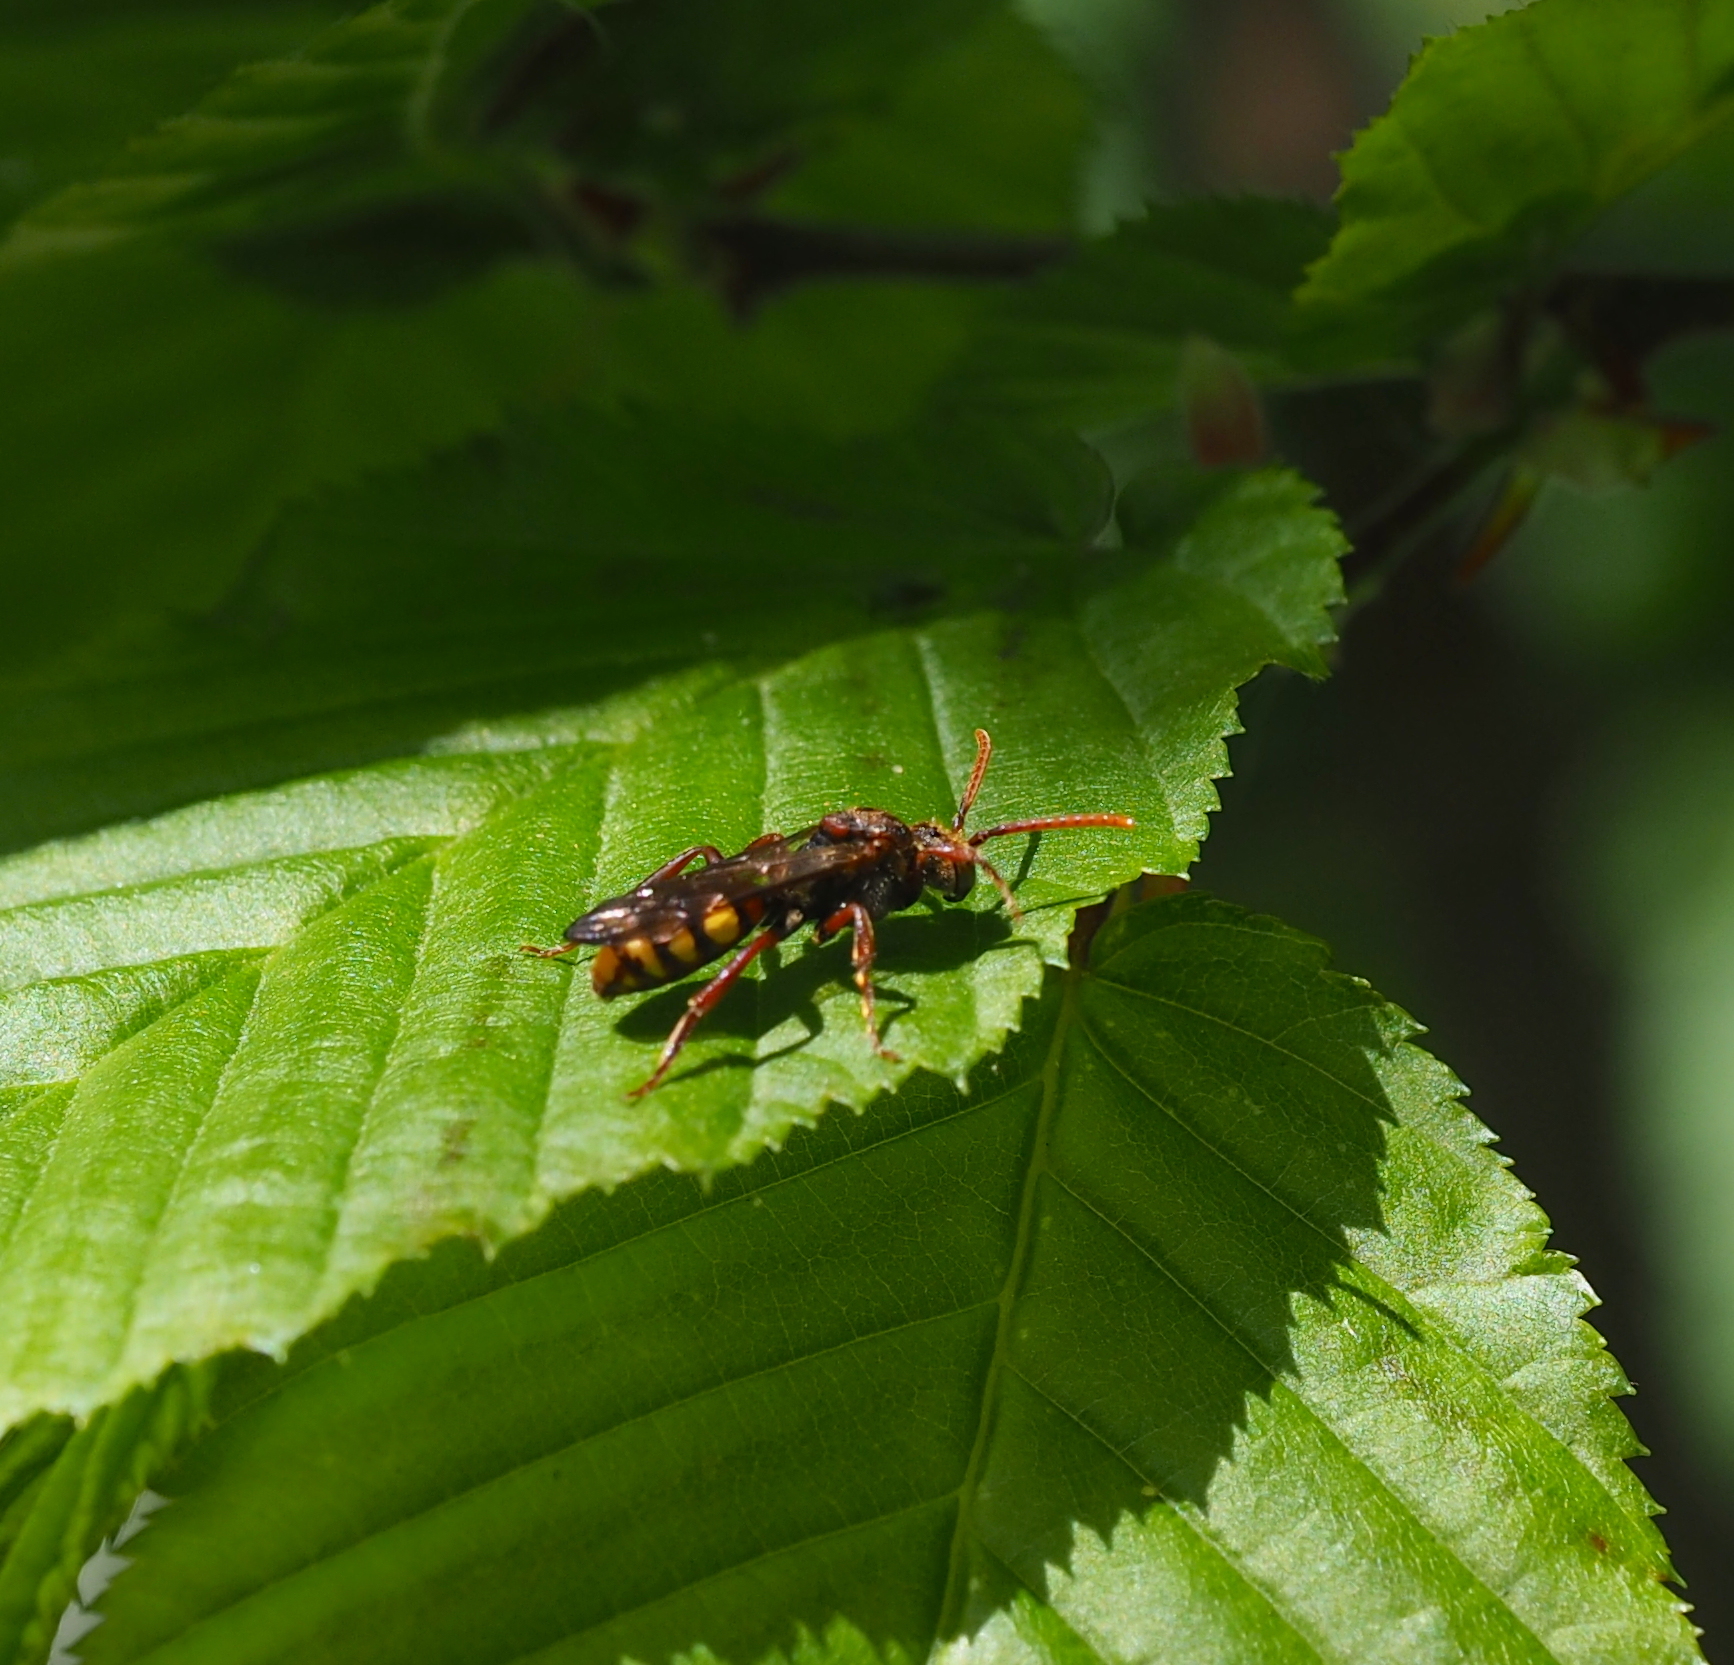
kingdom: Animalia
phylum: Arthropoda
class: Insecta
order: Hymenoptera
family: Apidae
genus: Nomada
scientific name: Nomada
